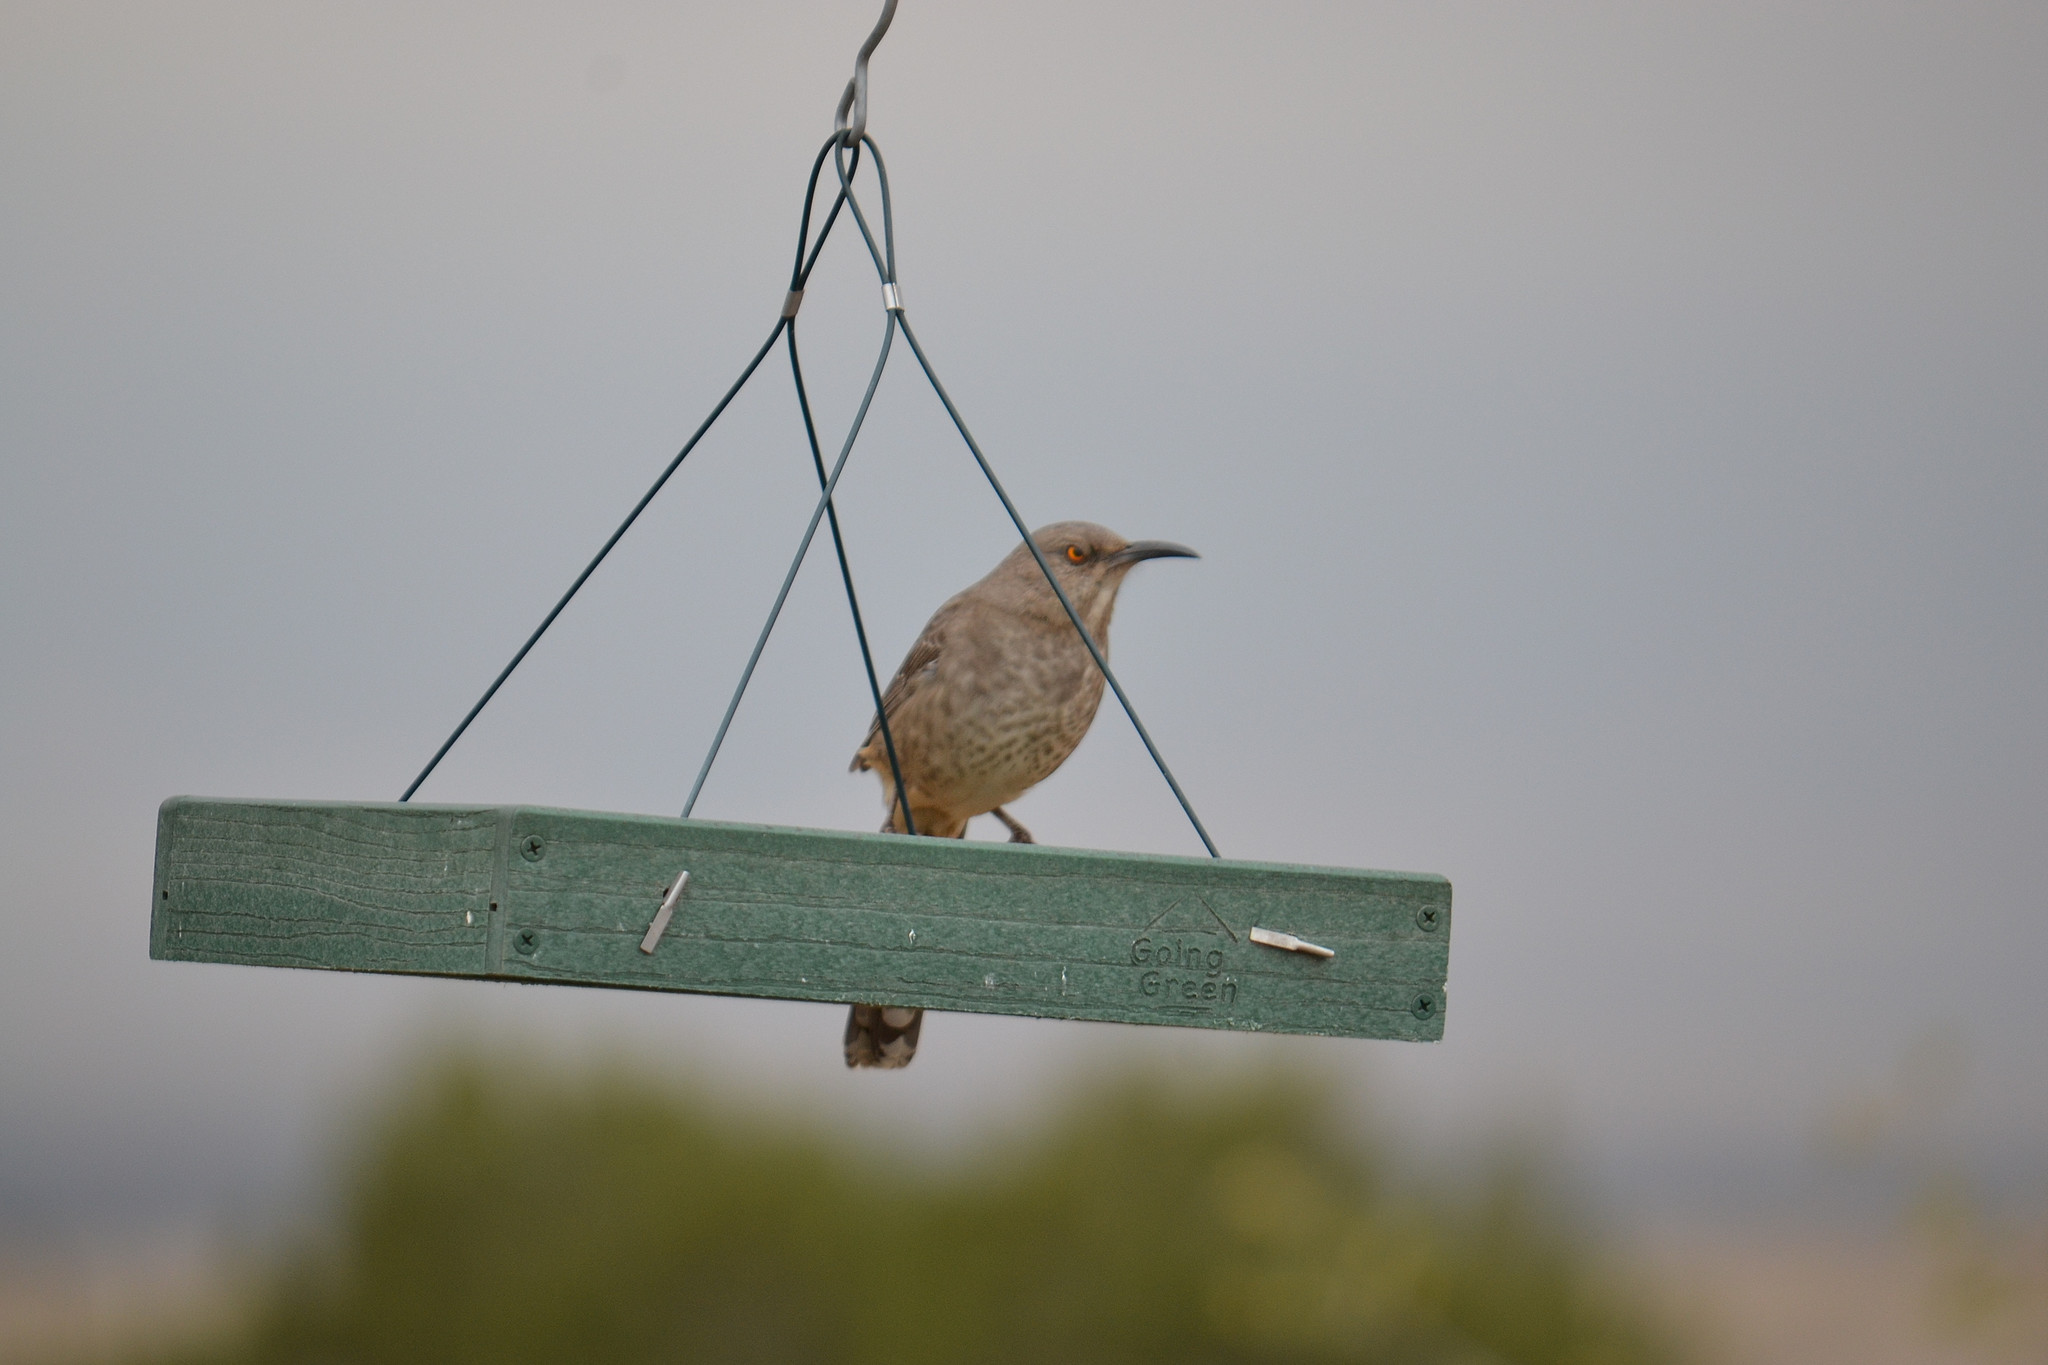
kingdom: Animalia
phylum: Chordata
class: Aves
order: Passeriformes
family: Mimidae
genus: Toxostoma
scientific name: Toxostoma curvirostre
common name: Curve-billed thrasher
